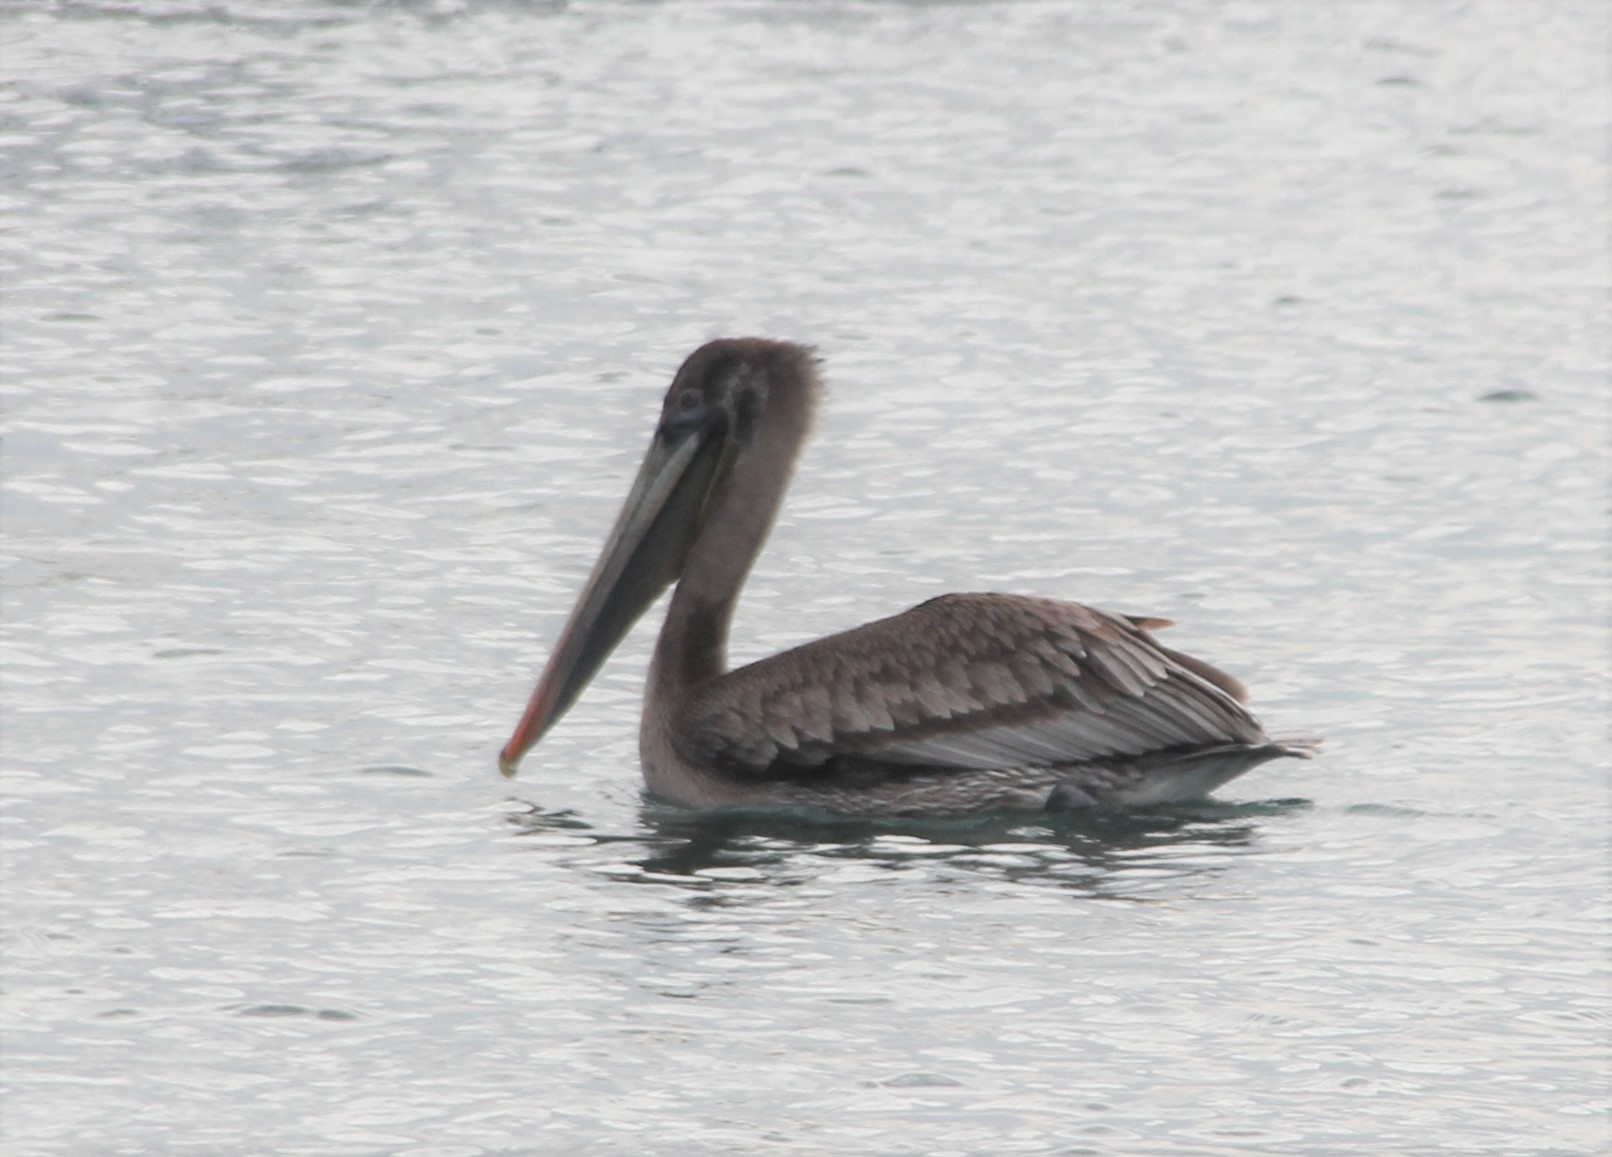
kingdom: Animalia
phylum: Chordata
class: Aves
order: Pelecaniformes
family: Pelecanidae
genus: Pelecanus
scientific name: Pelecanus occidentalis
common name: Brown pelican
